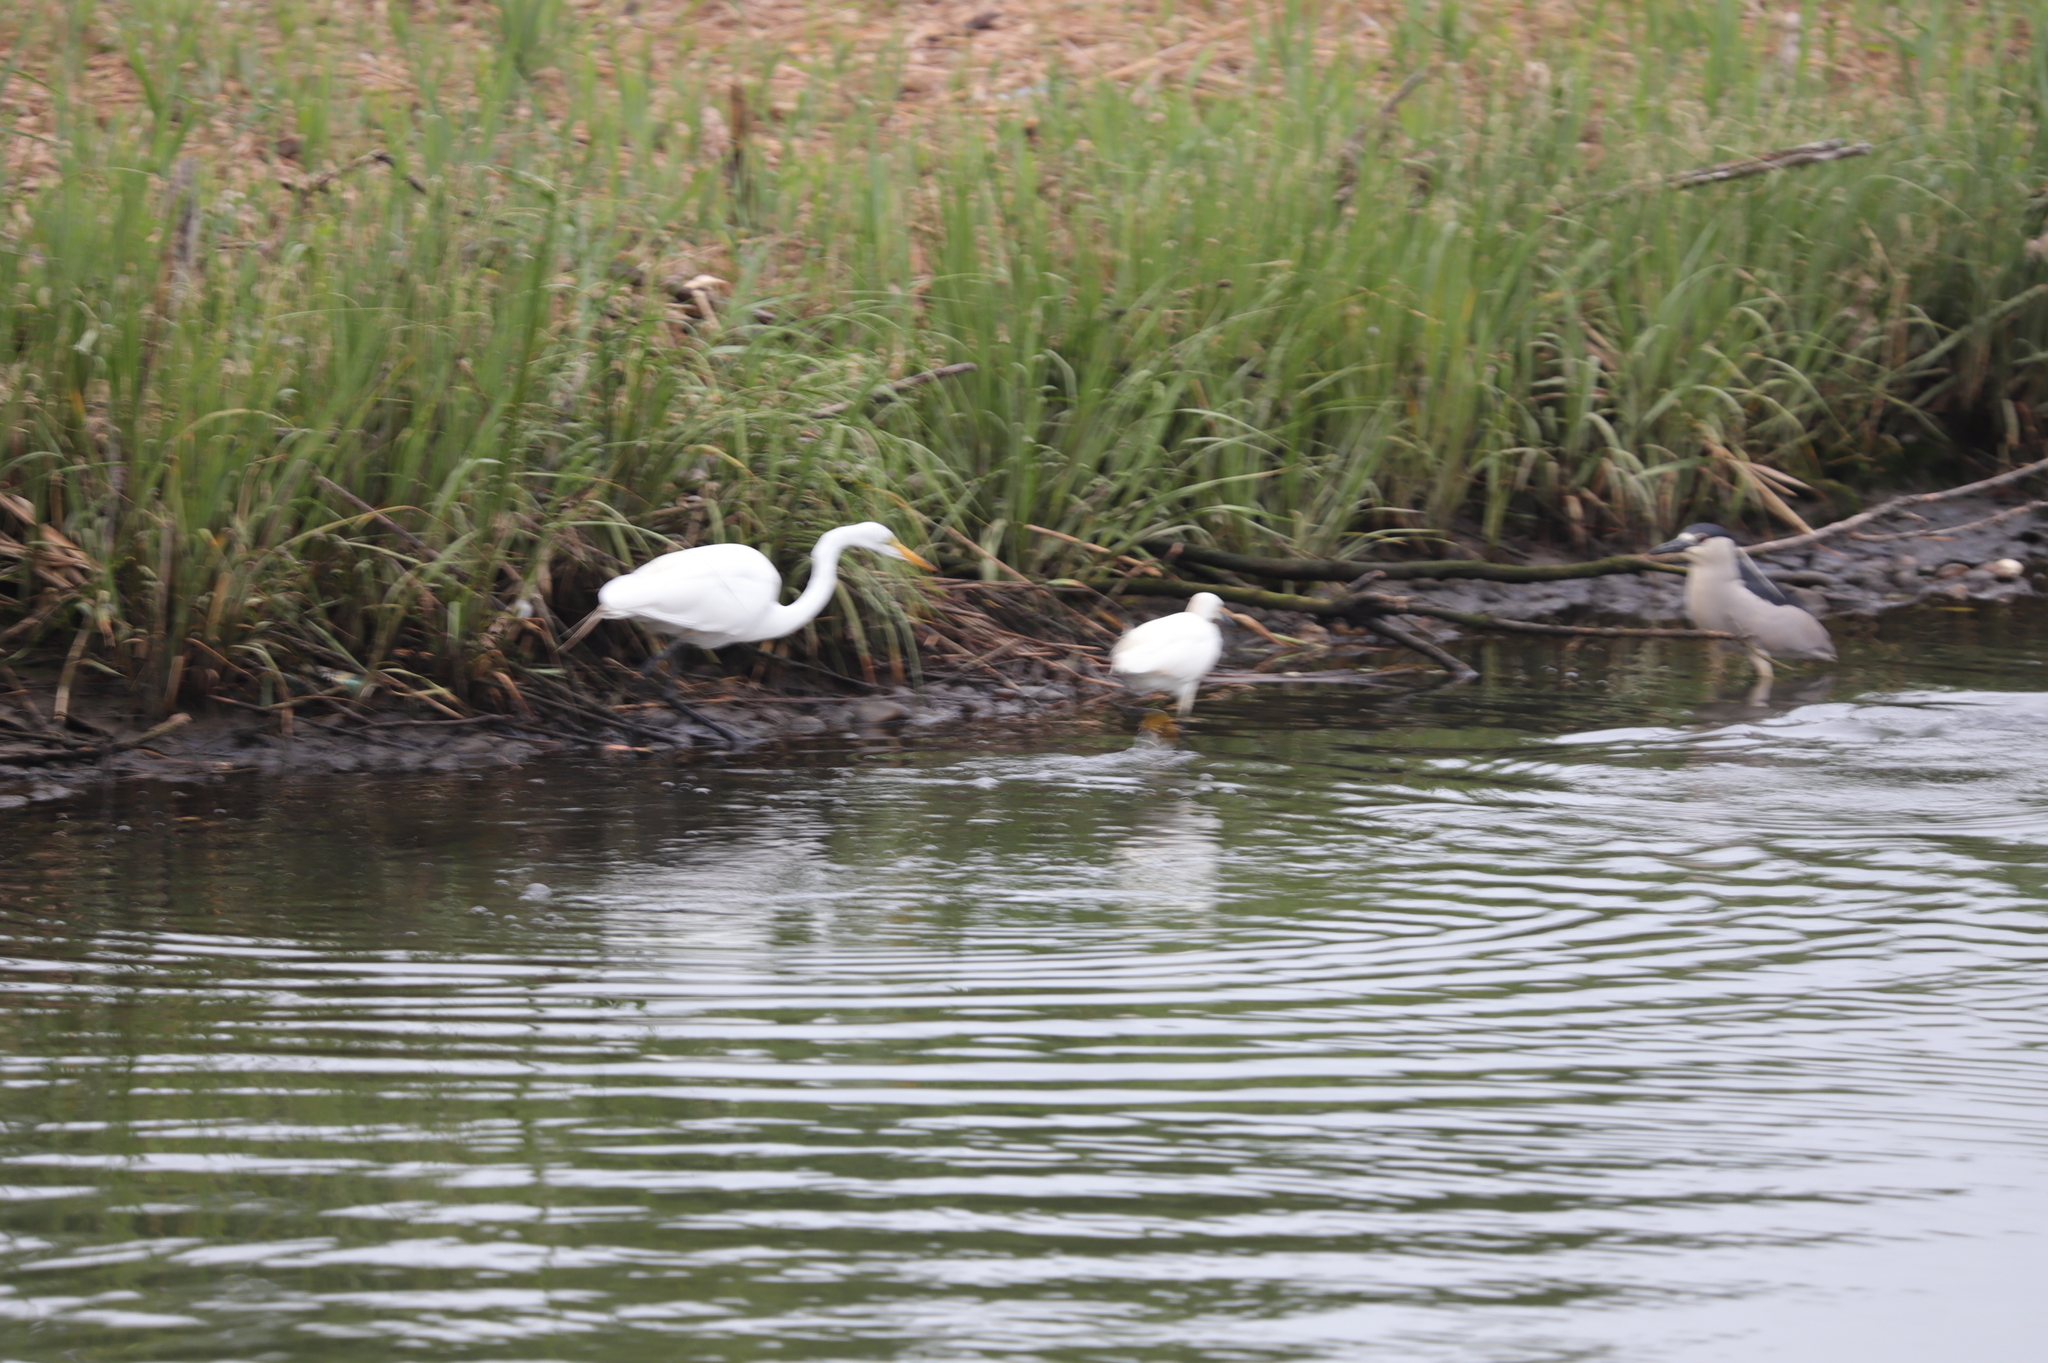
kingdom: Animalia
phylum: Chordata
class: Aves
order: Pelecaniformes
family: Ardeidae
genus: Egretta
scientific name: Egretta thula
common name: Snowy egret
